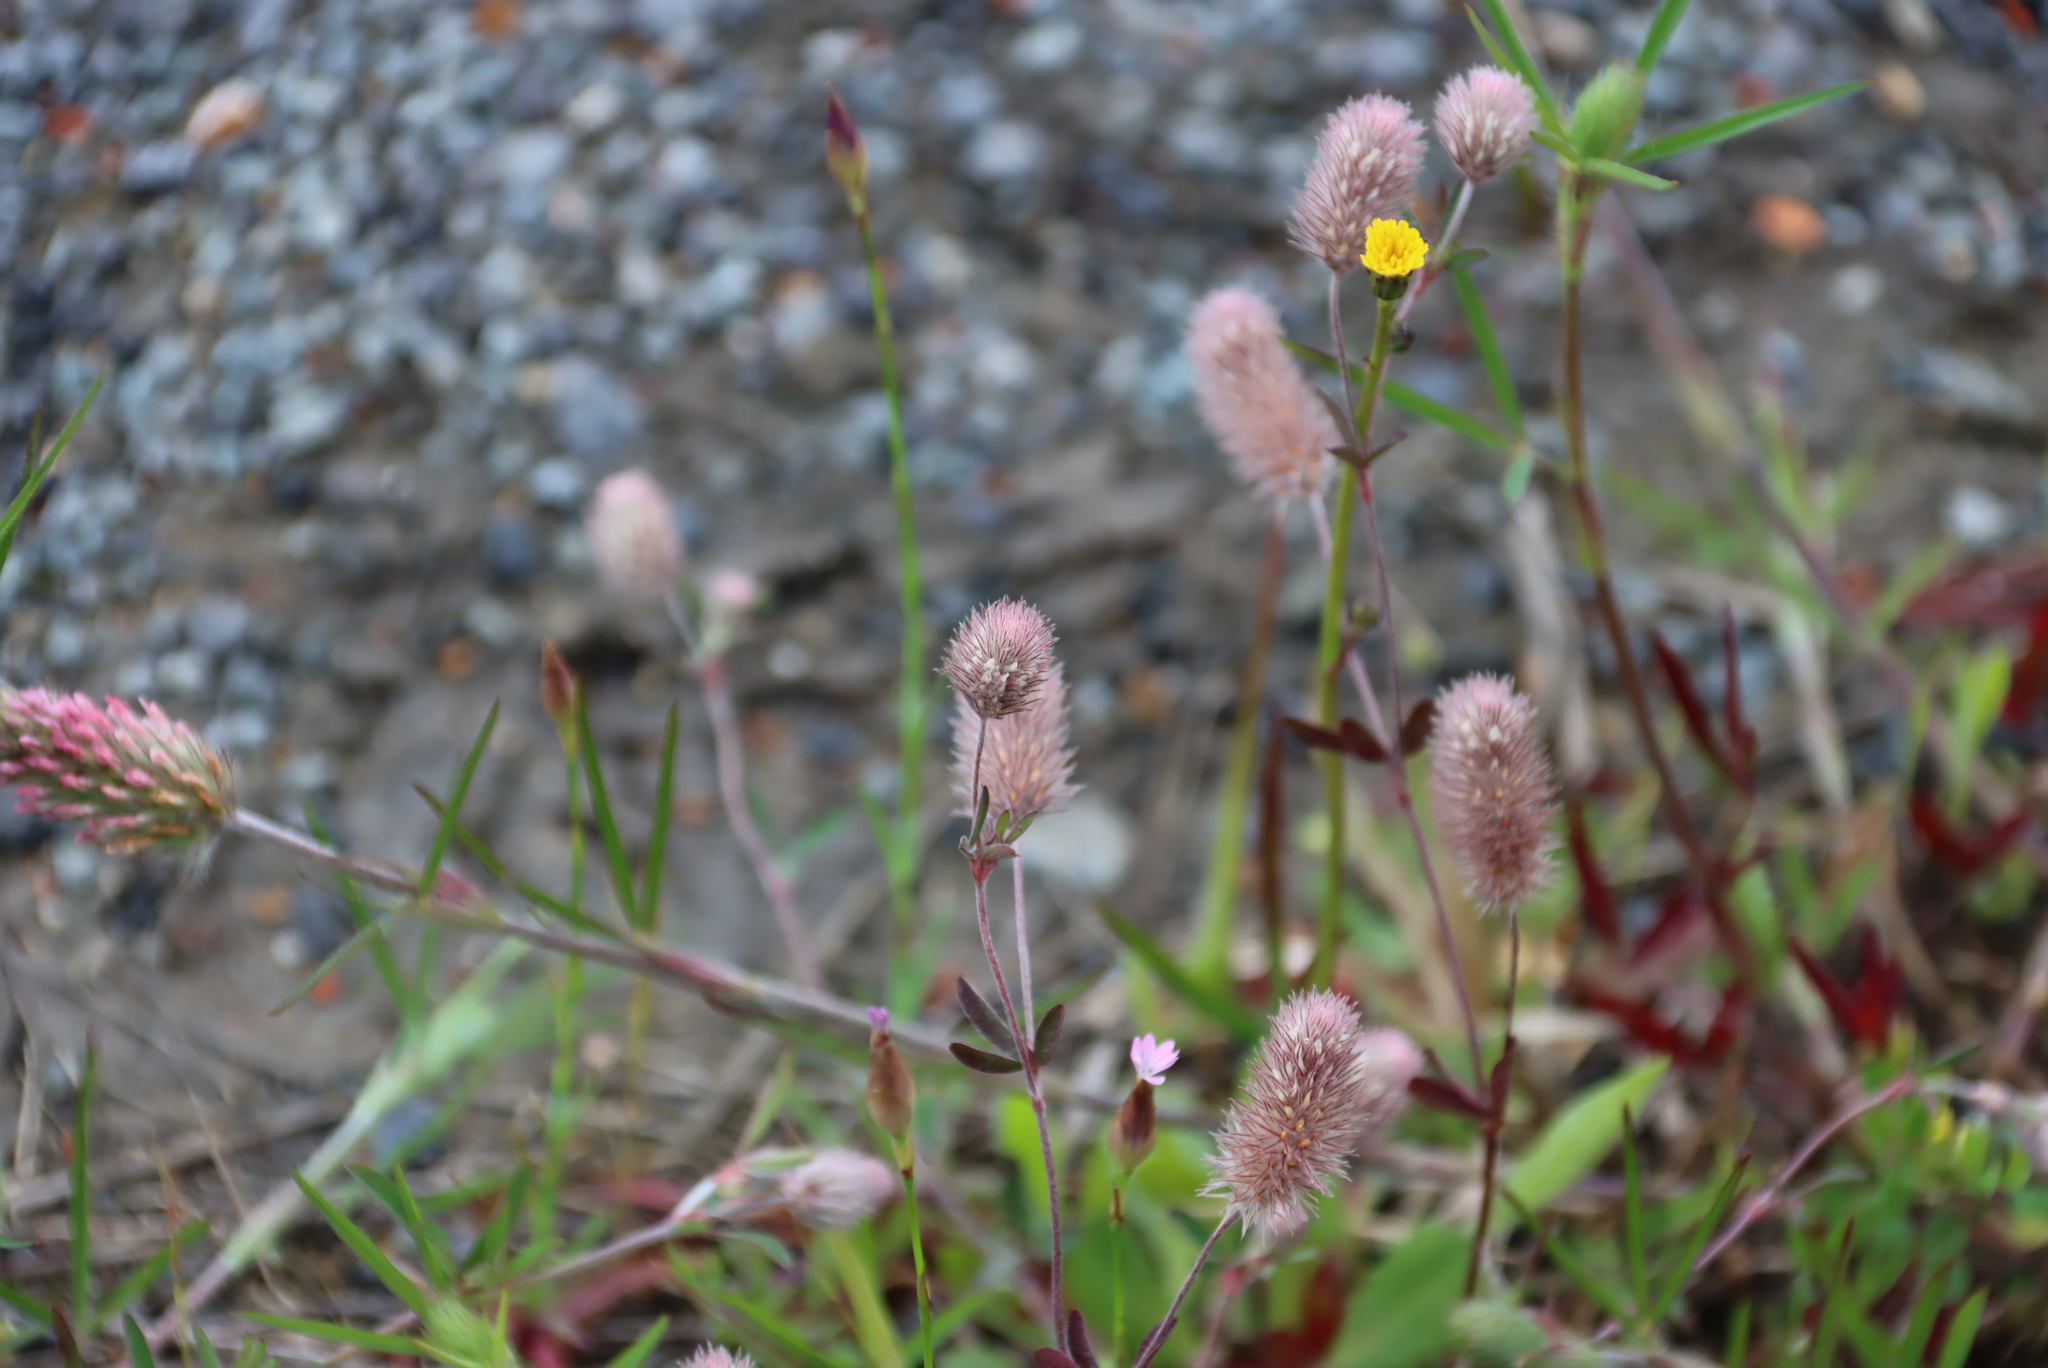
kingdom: Plantae
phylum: Tracheophyta
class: Magnoliopsida
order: Fabales
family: Fabaceae
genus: Trifolium
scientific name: Trifolium arvense
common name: Hare's-foot clover
